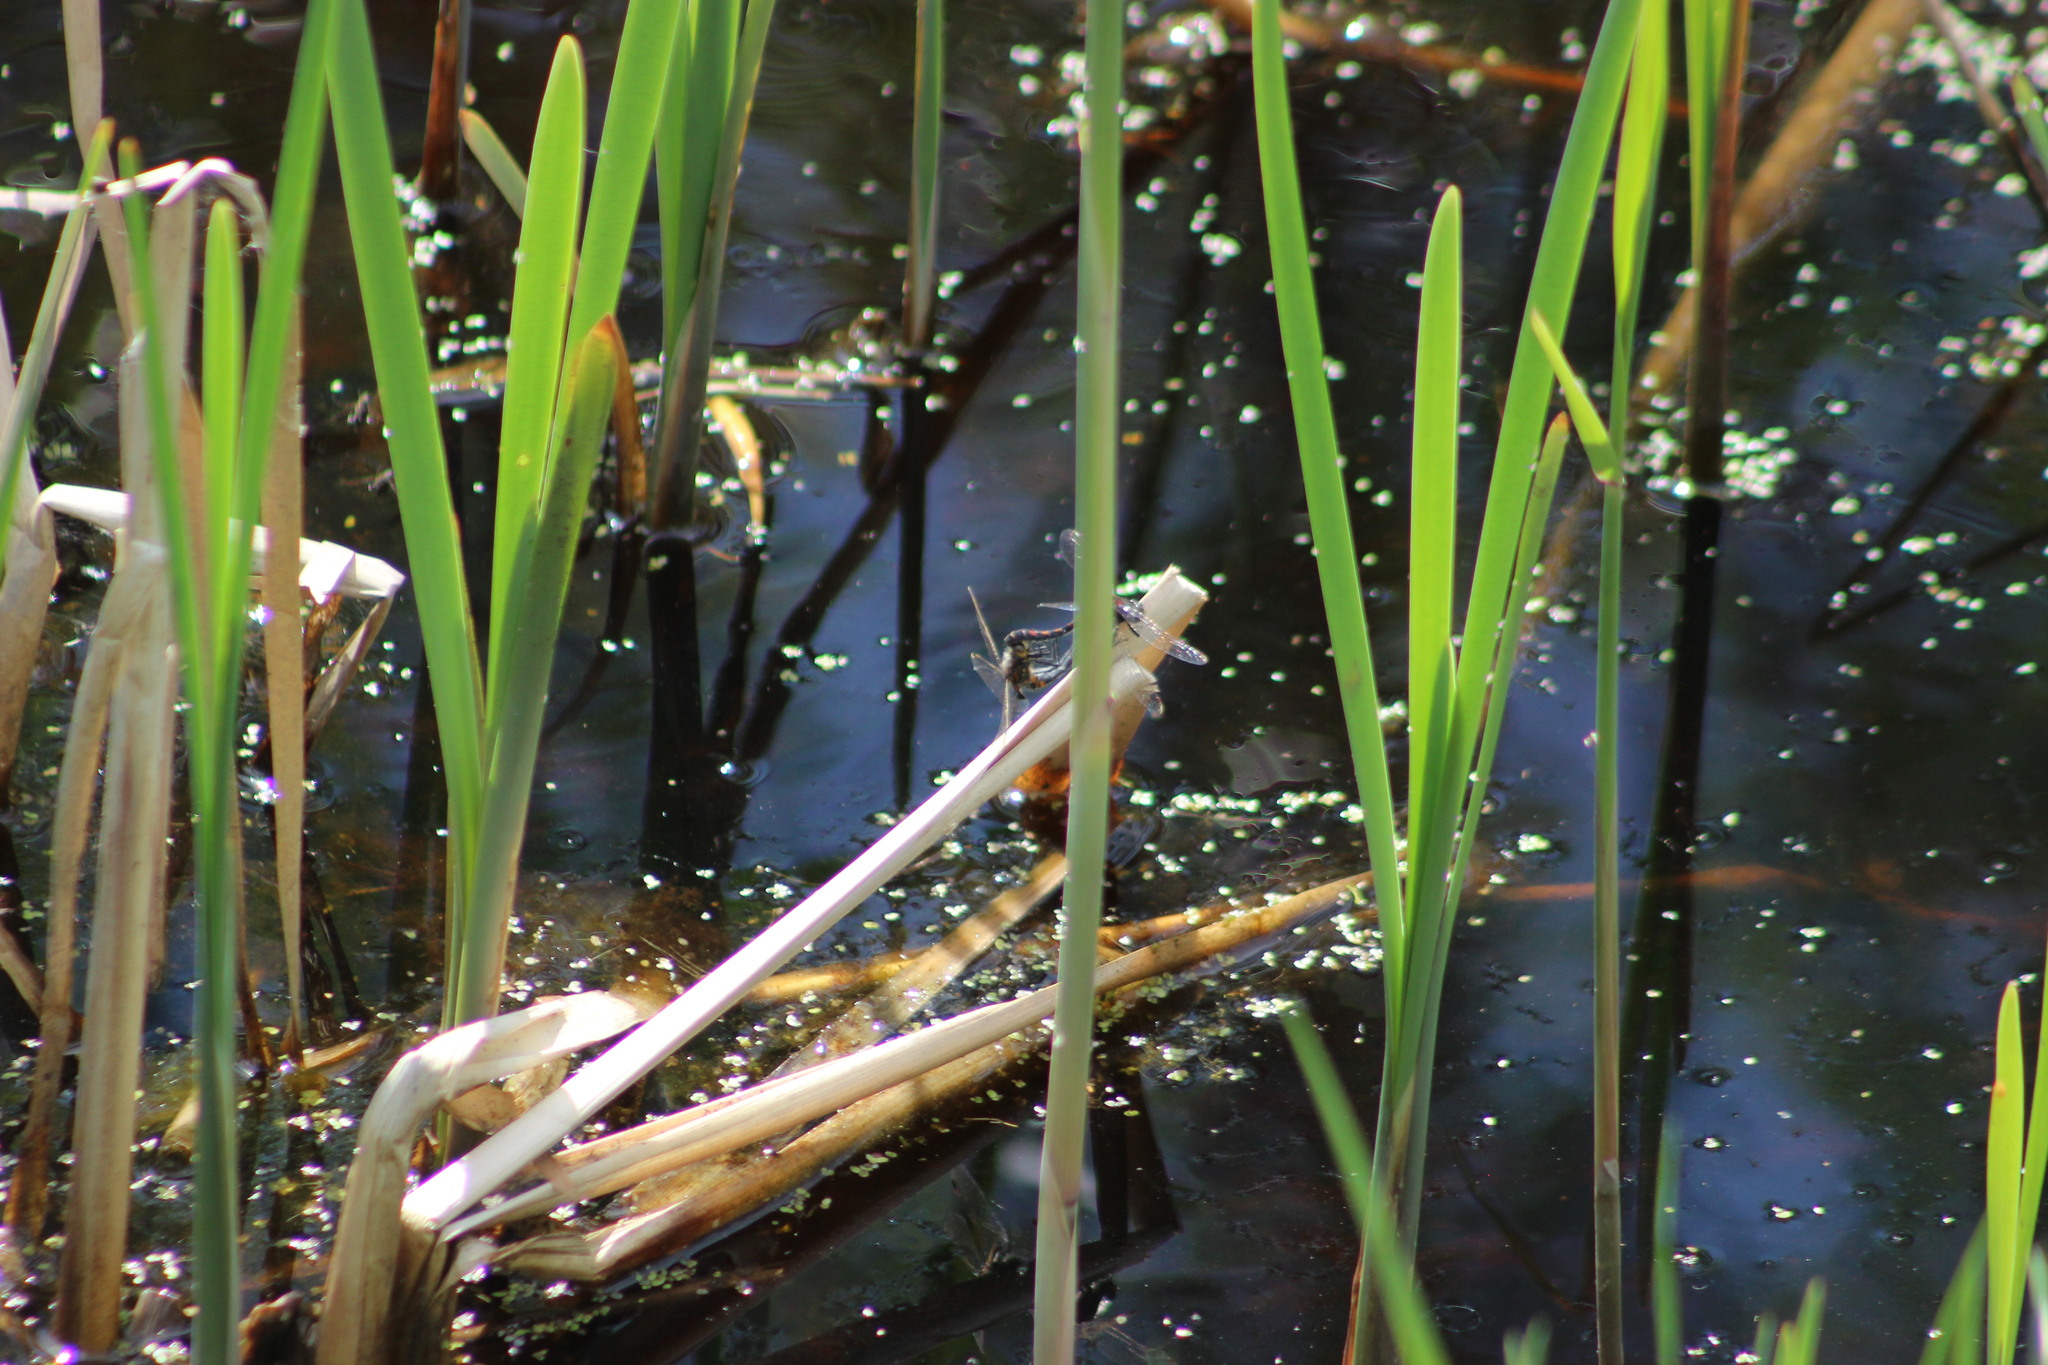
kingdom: Animalia
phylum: Arthropoda
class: Insecta
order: Odonata
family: Libellulidae
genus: Leucorrhinia
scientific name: Leucorrhinia rubicunda
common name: Ruby whiteface
